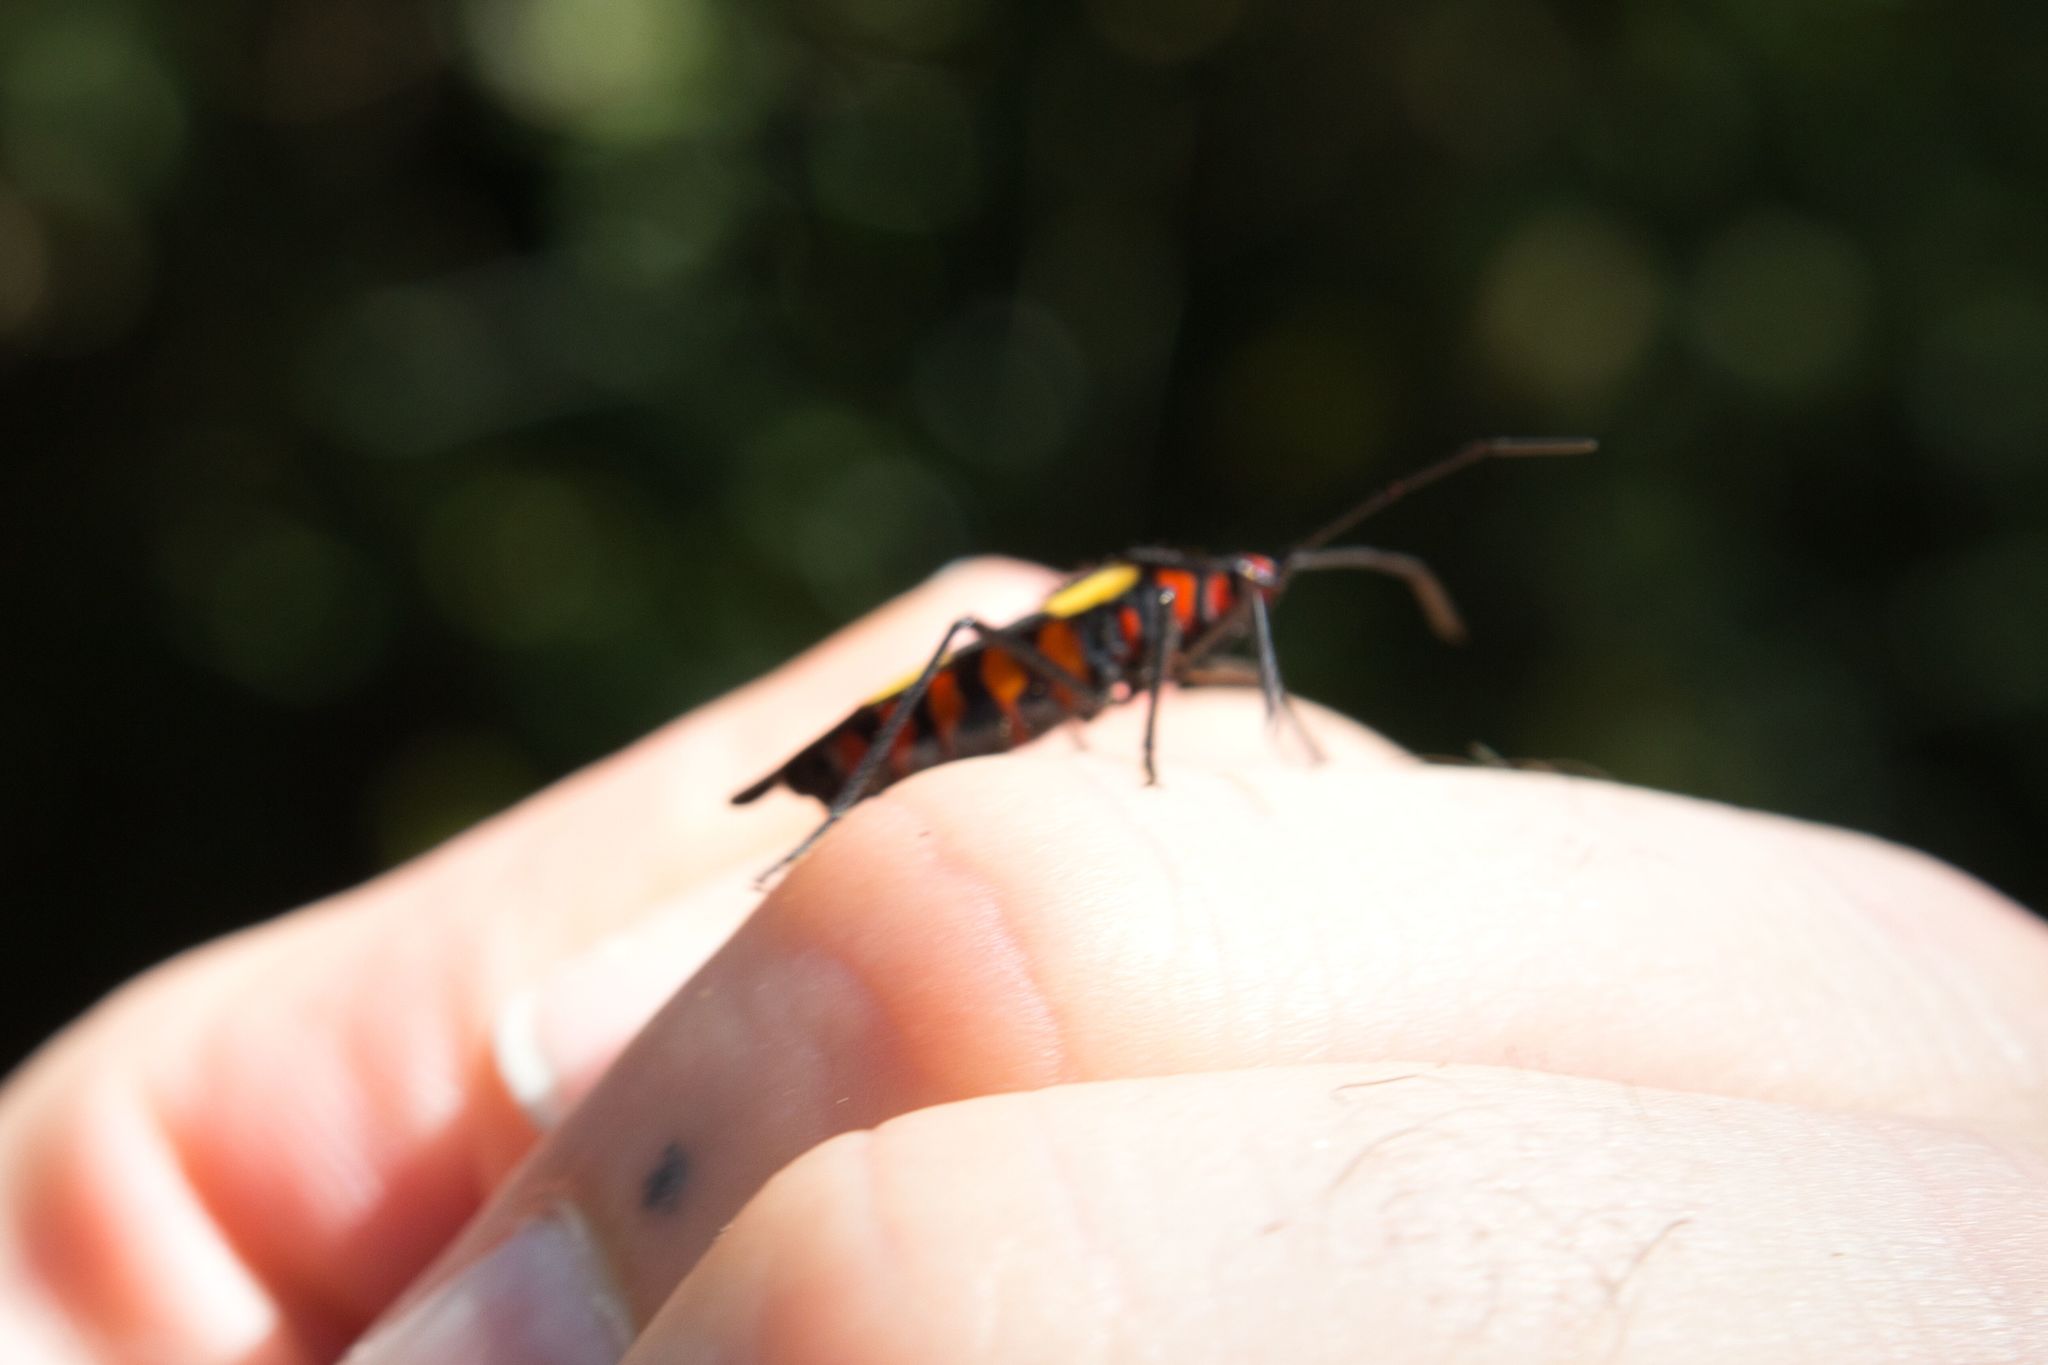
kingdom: Animalia
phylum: Arthropoda
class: Insecta
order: Hemiptera
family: Lygaeidae
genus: Oncopeltus
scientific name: Oncopeltus varicolor
